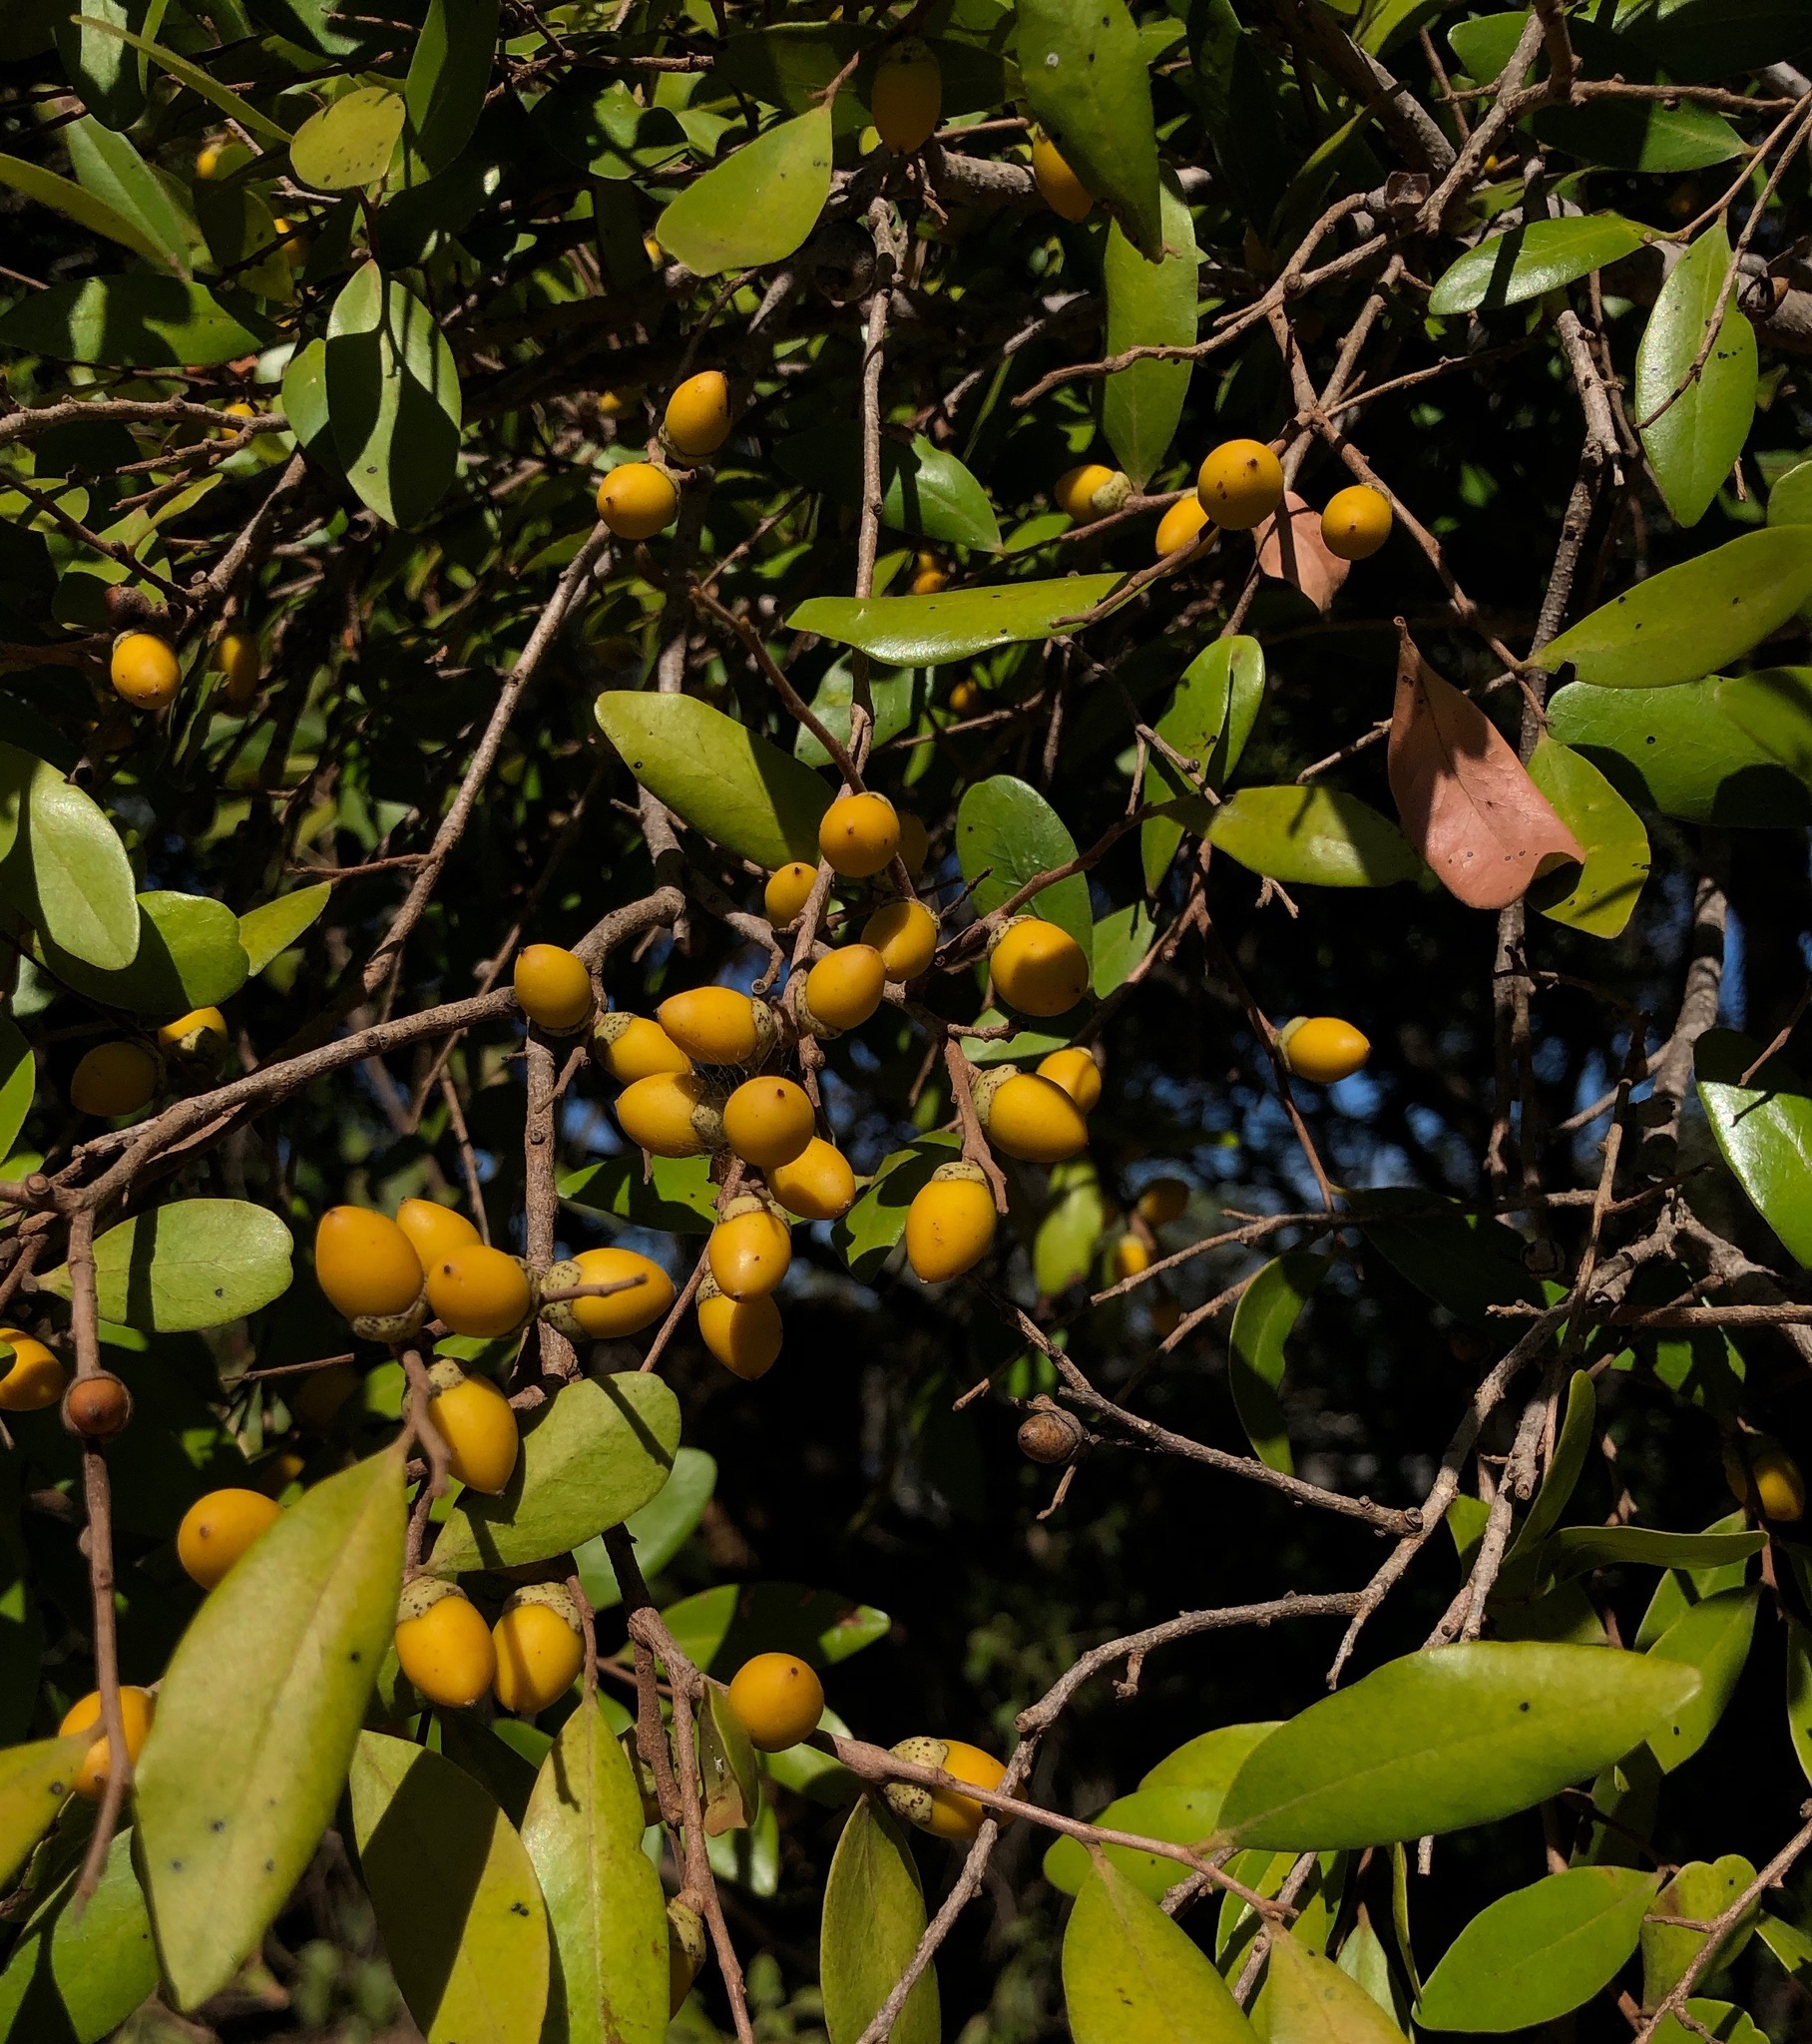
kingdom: Plantae
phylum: Tracheophyta
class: Magnoliopsida
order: Ericales
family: Ebenaceae
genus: Diospyros
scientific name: Diospyros humilis
